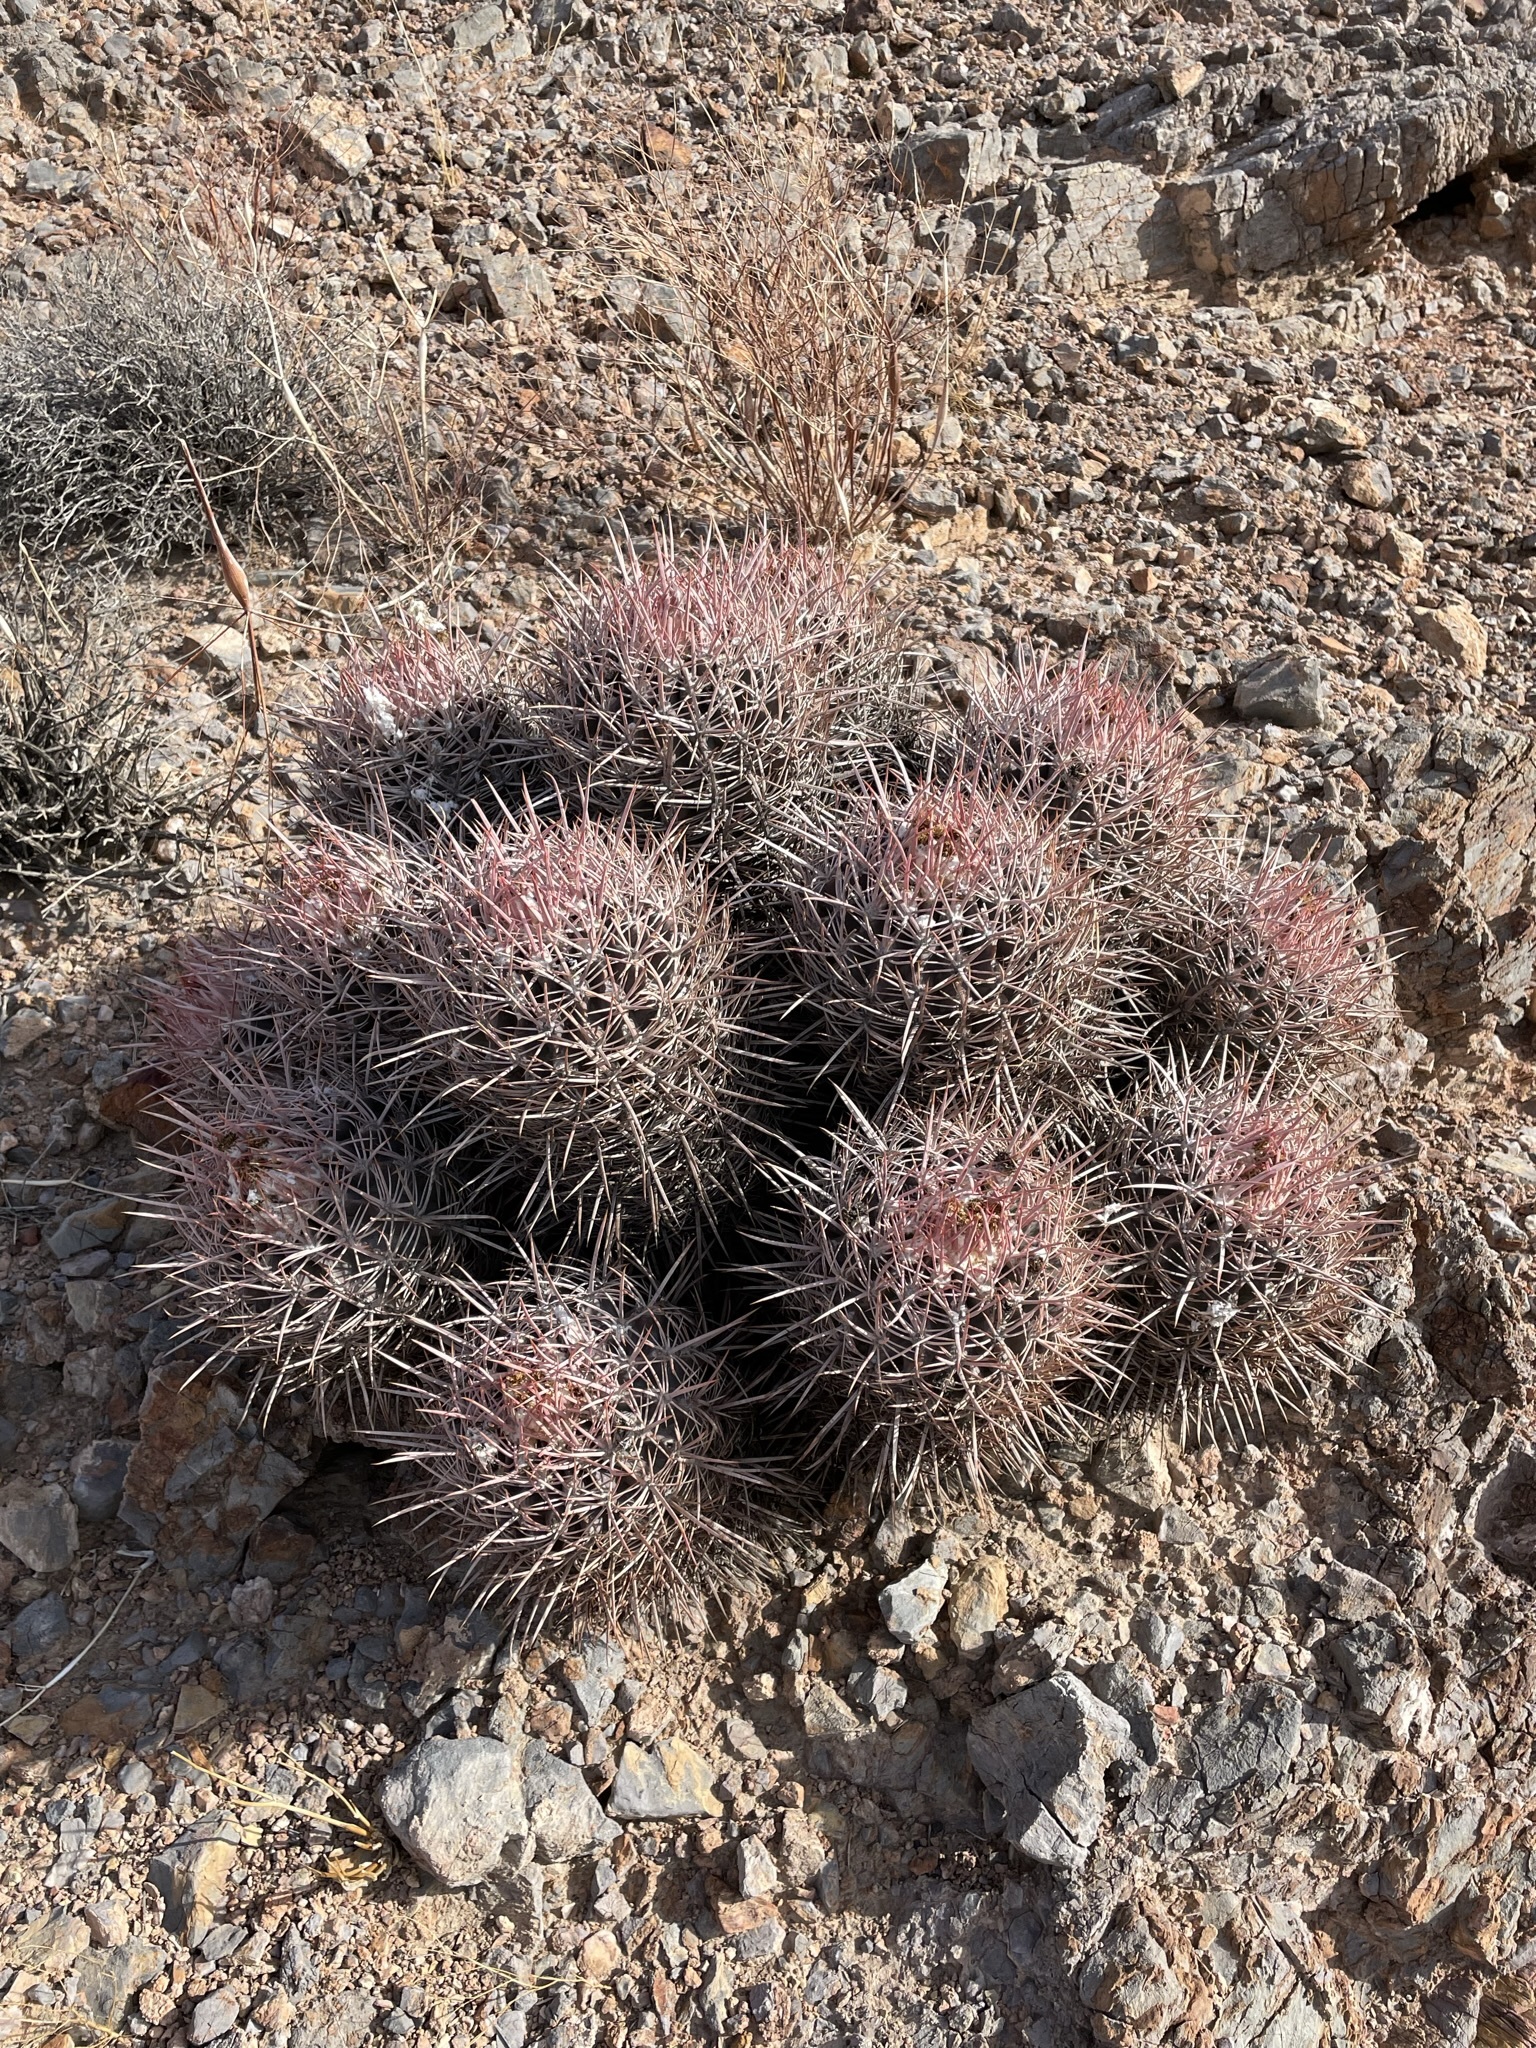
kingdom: Plantae
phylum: Tracheophyta
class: Magnoliopsida
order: Caryophyllales
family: Cactaceae
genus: Echinocactus
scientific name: Echinocactus polycephalus
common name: Cottontop cactus
